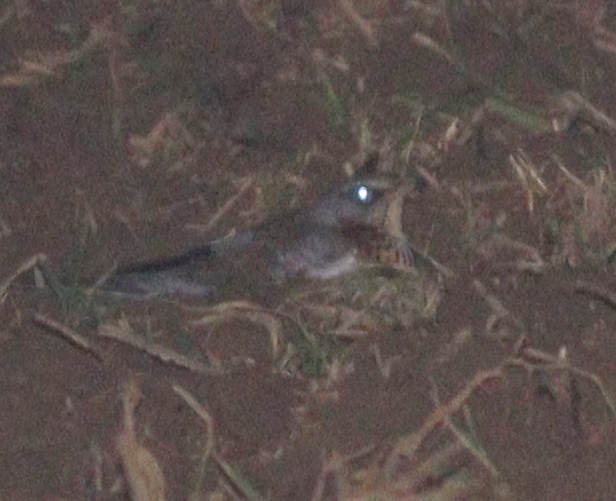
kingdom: Animalia
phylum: Chordata
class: Aves
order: Passeriformes
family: Turdidae
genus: Turdus
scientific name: Turdus pilaris
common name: Fieldfare
